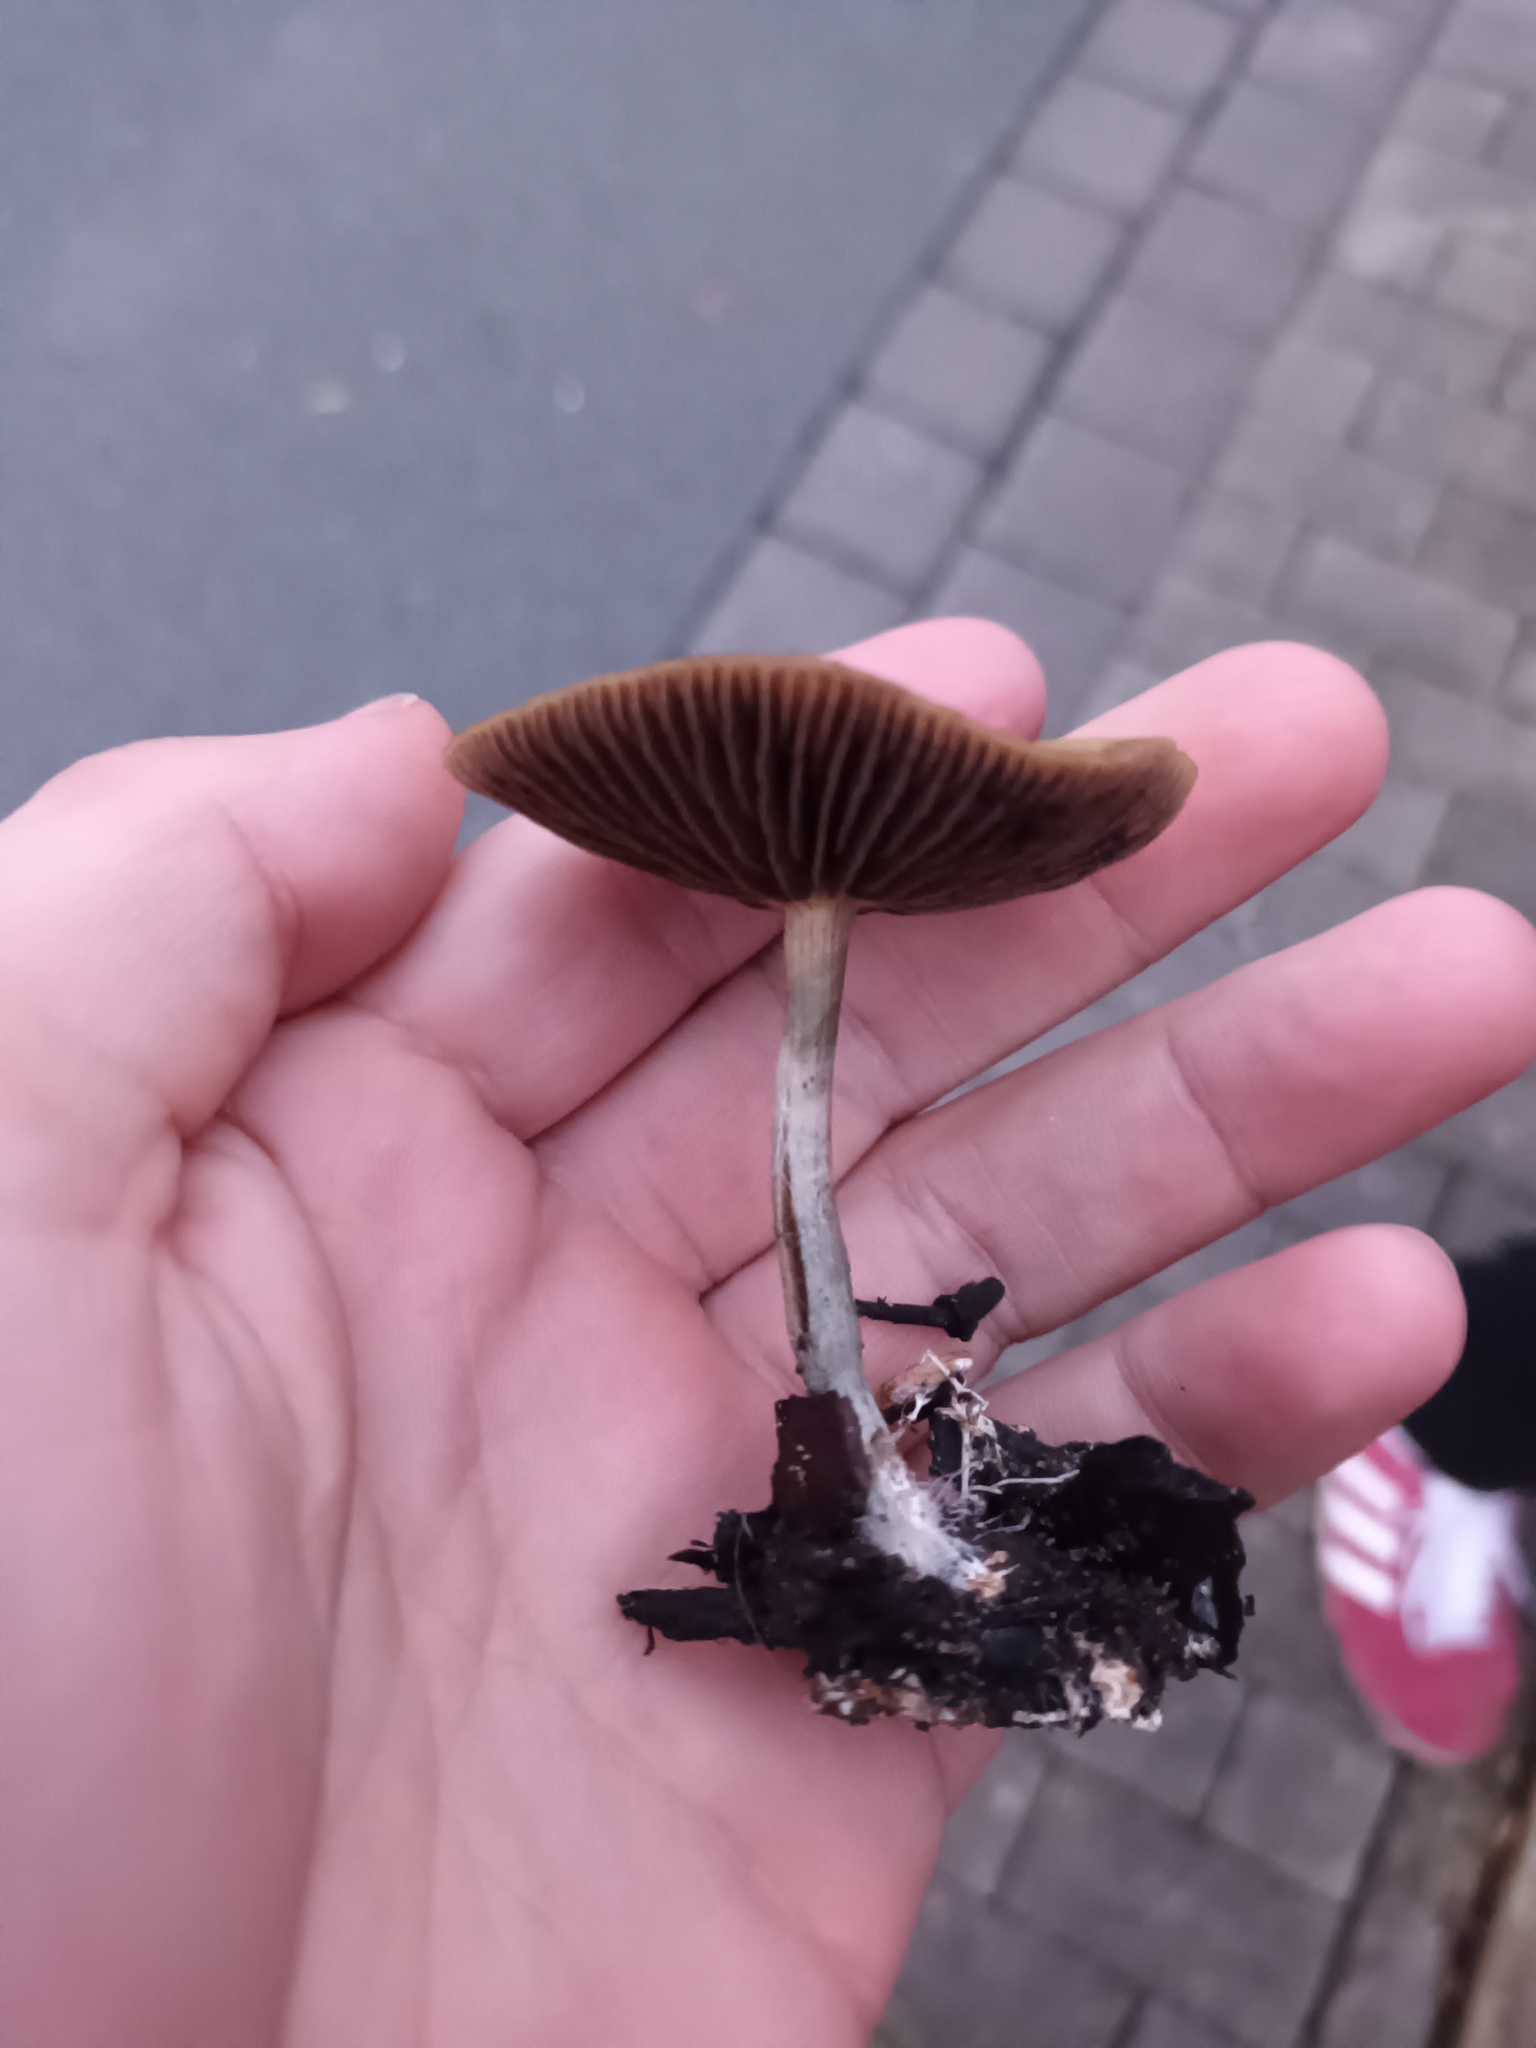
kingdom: Fungi
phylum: Basidiomycota
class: Agaricomycetes
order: Agaricales
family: Hymenogastraceae
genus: Psilocybe
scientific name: Psilocybe cyanescens
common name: Blueleg brownie
